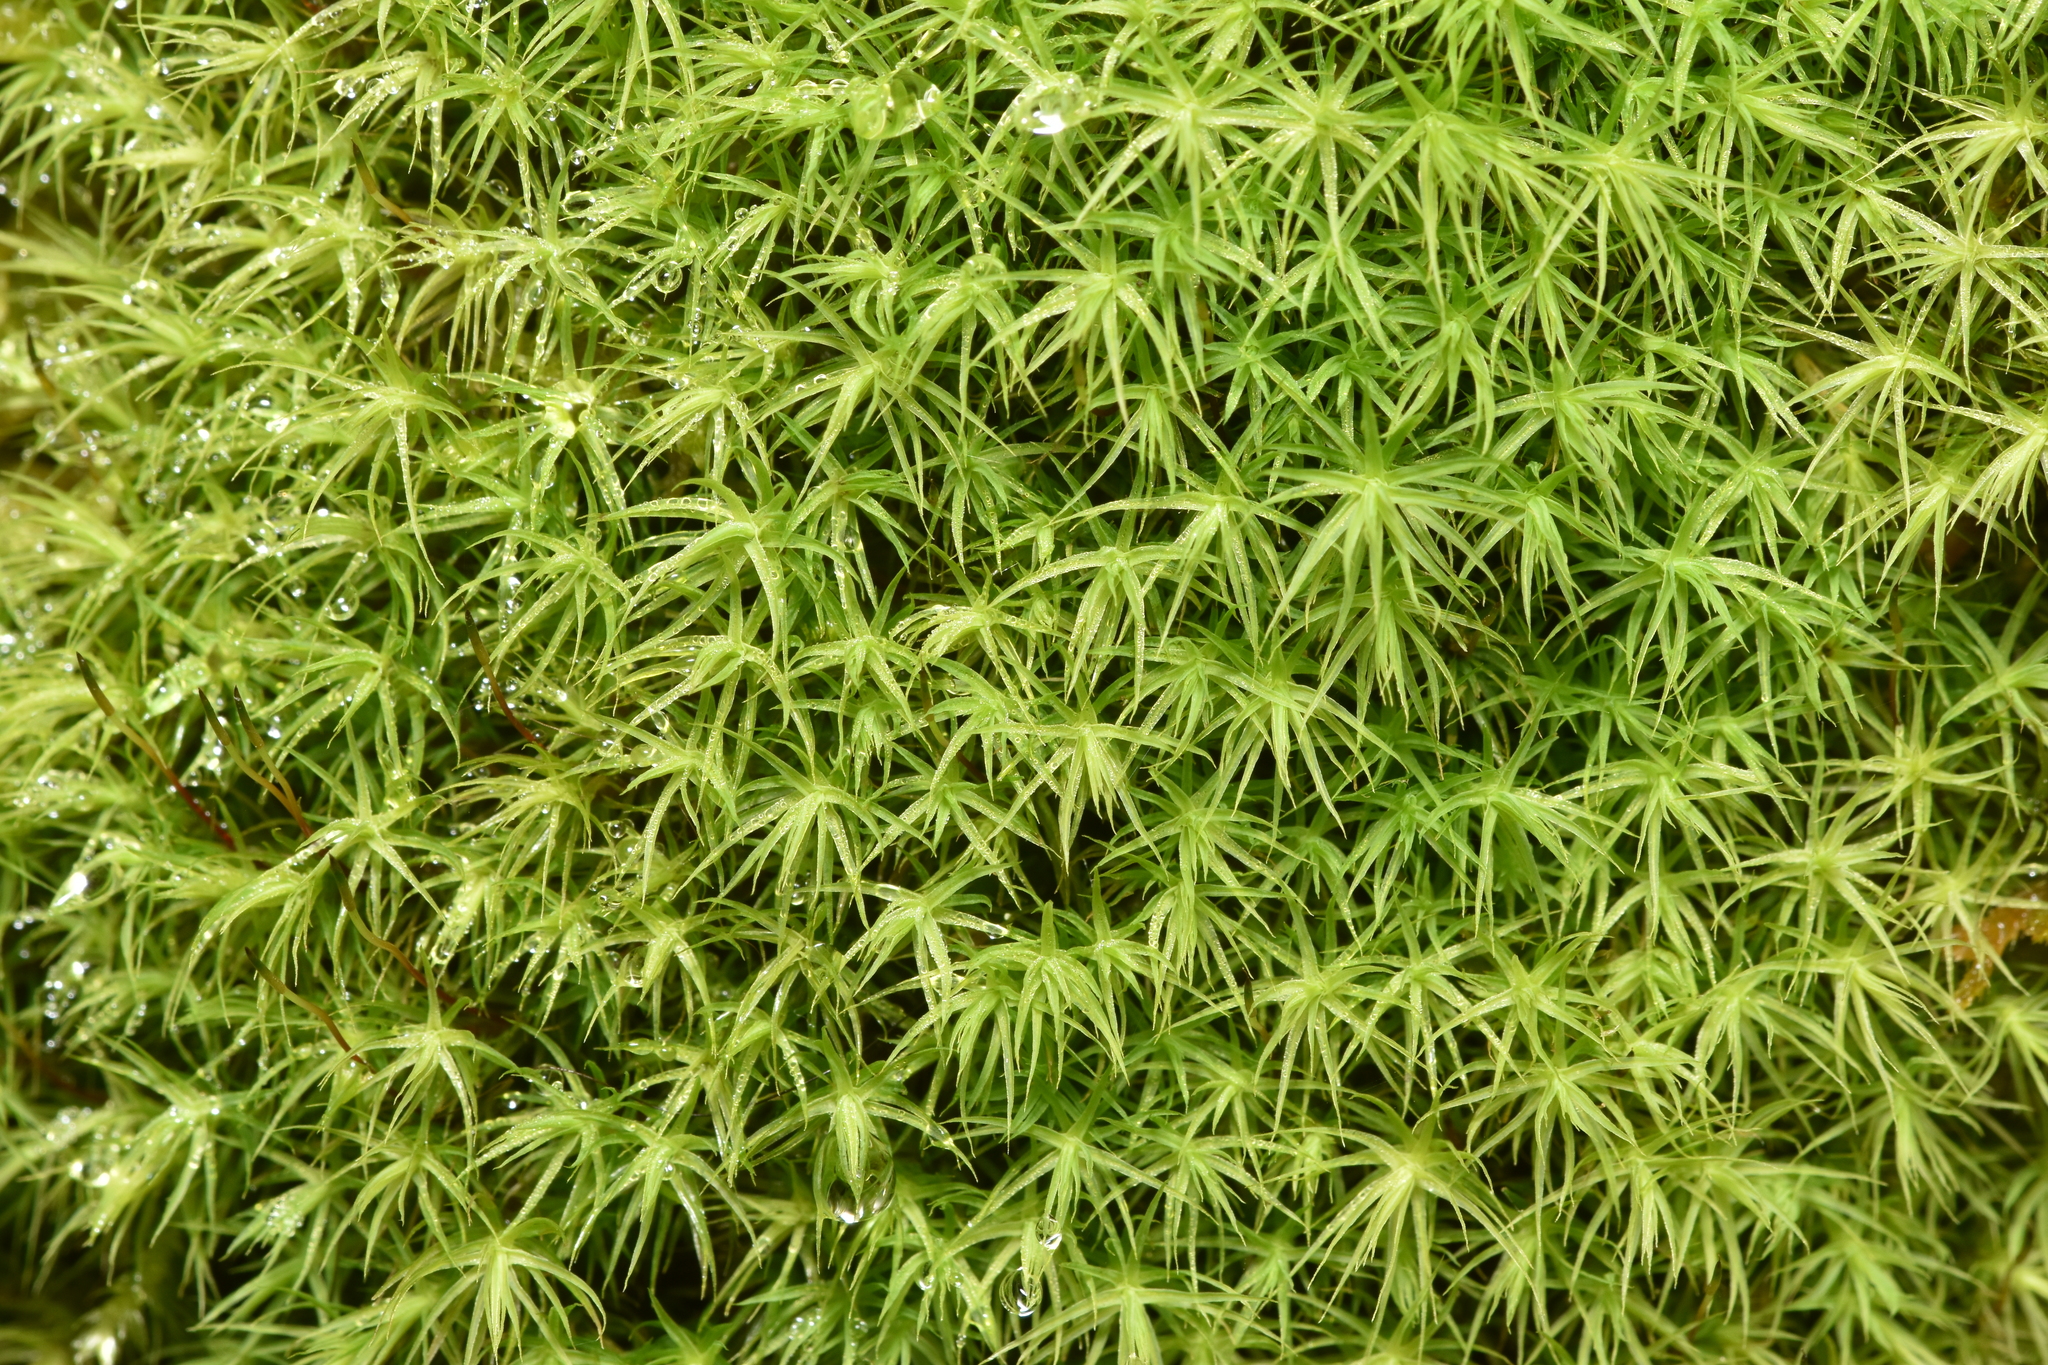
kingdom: Plantae
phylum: Bryophyta
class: Bryopsida
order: Bartramiales
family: Bartramiaceae
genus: Bartramia
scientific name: Bartramia ithyphylla
